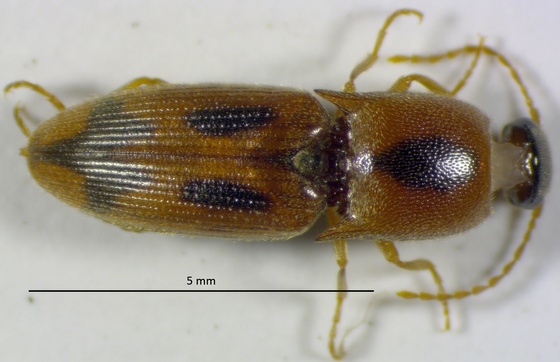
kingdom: Animalia
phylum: Arthropoda
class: Insecta
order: Coleoptera
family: Elateridae
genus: Aeolus
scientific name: Aeolus mellillus
